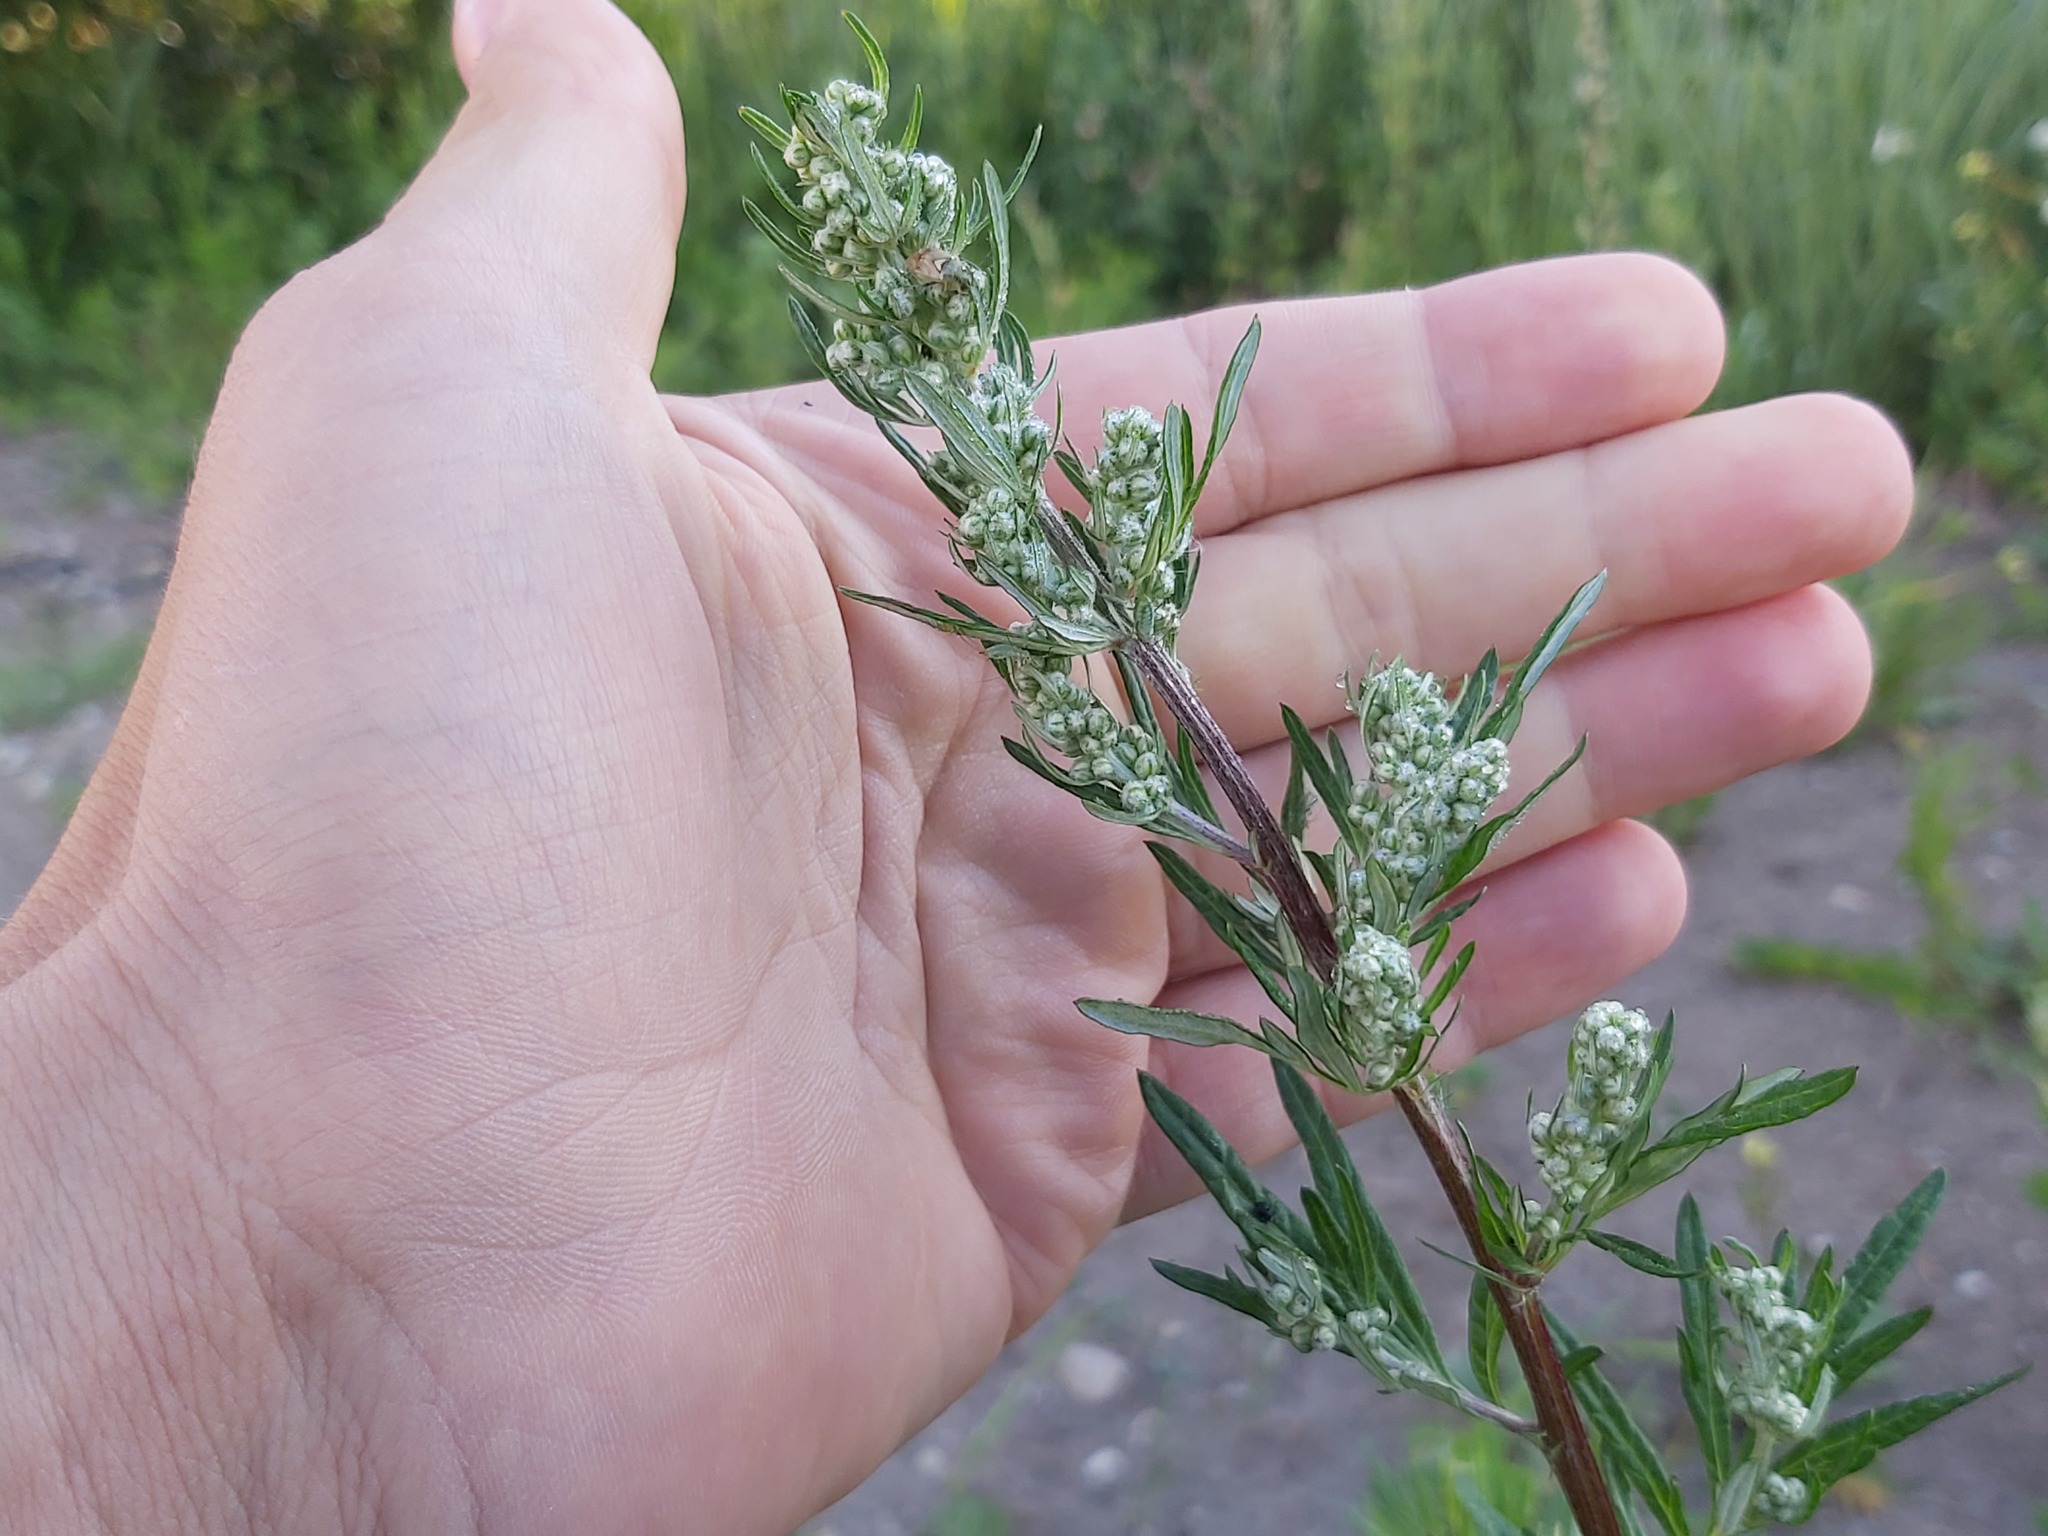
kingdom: Plantae
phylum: Tracheophyta
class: Magnoliopsida
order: Asterales
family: Asteraceae
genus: Artemisia
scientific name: Artemisia vulgaris
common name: Mugwort
